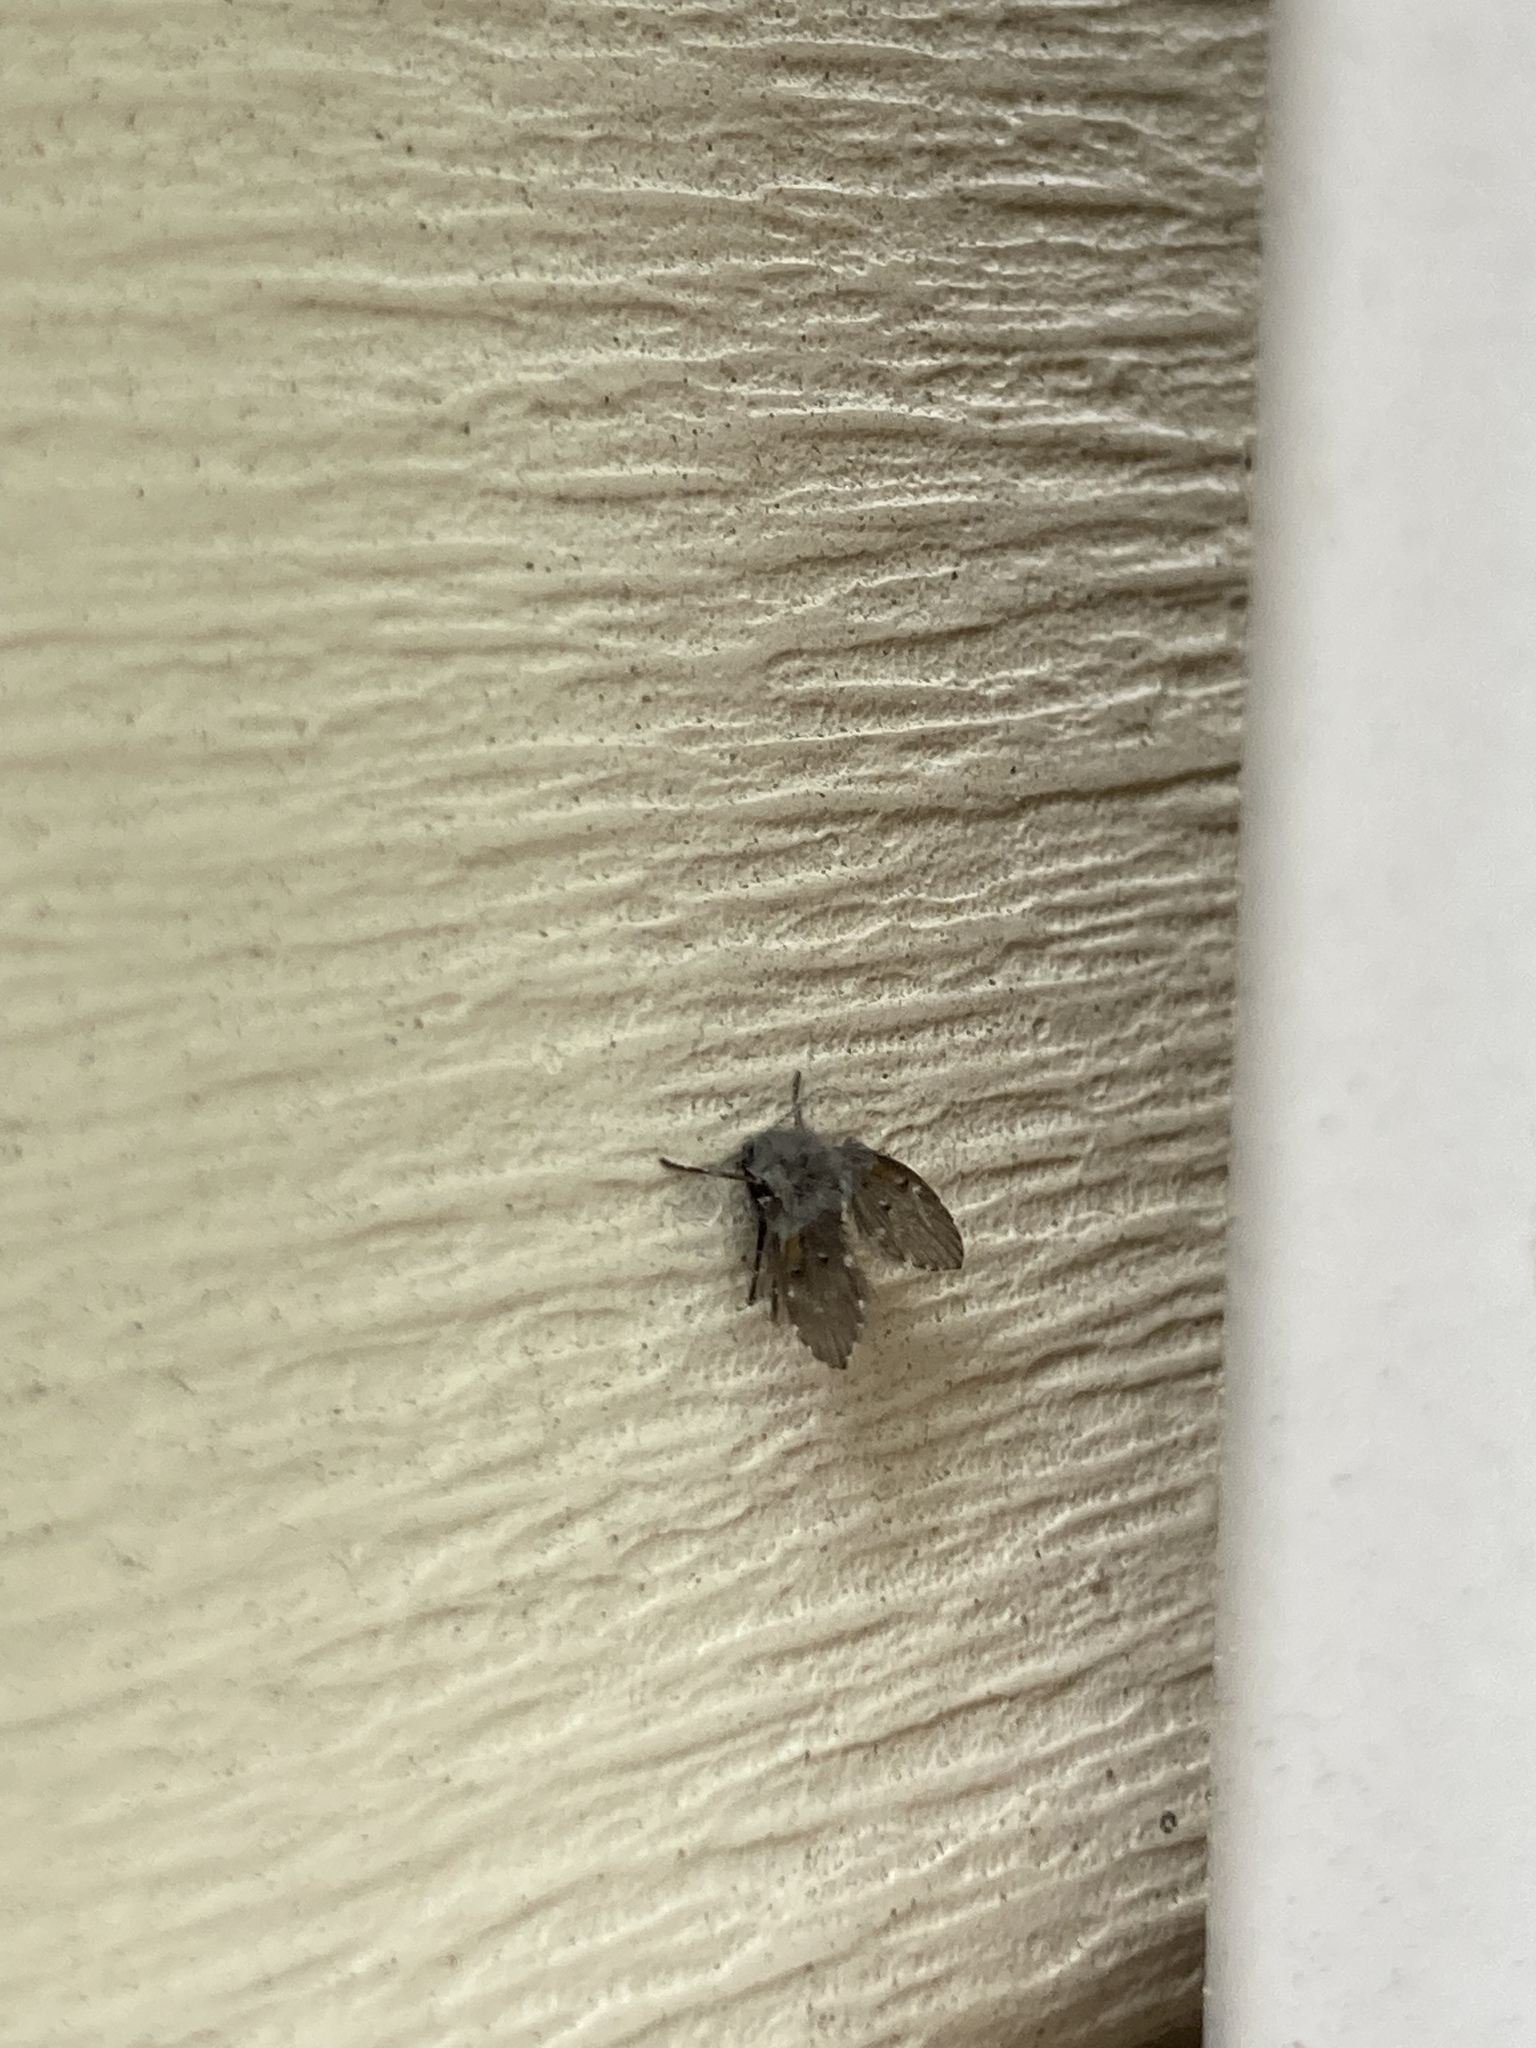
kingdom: Animalia
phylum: Arthropoda
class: Insecta
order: Diptera
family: Psychodidae
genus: Clogmia
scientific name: Clogmia albipunctatus
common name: White-spotted moth fly
